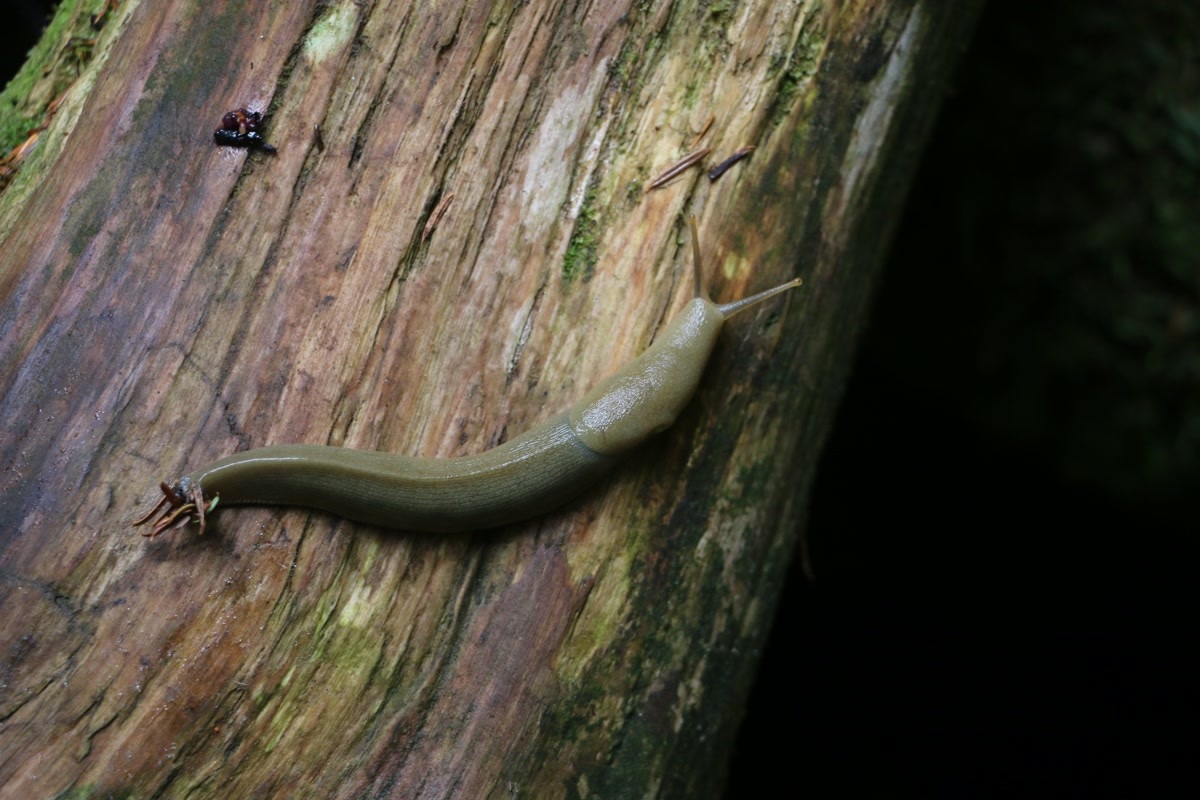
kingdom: Animalia
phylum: Mollusca
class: Gastropoda
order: Stylommatophora
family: Ariolimacidae
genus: Ariolimax
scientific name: Ariolimax columbianus
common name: Pacific banana slug
